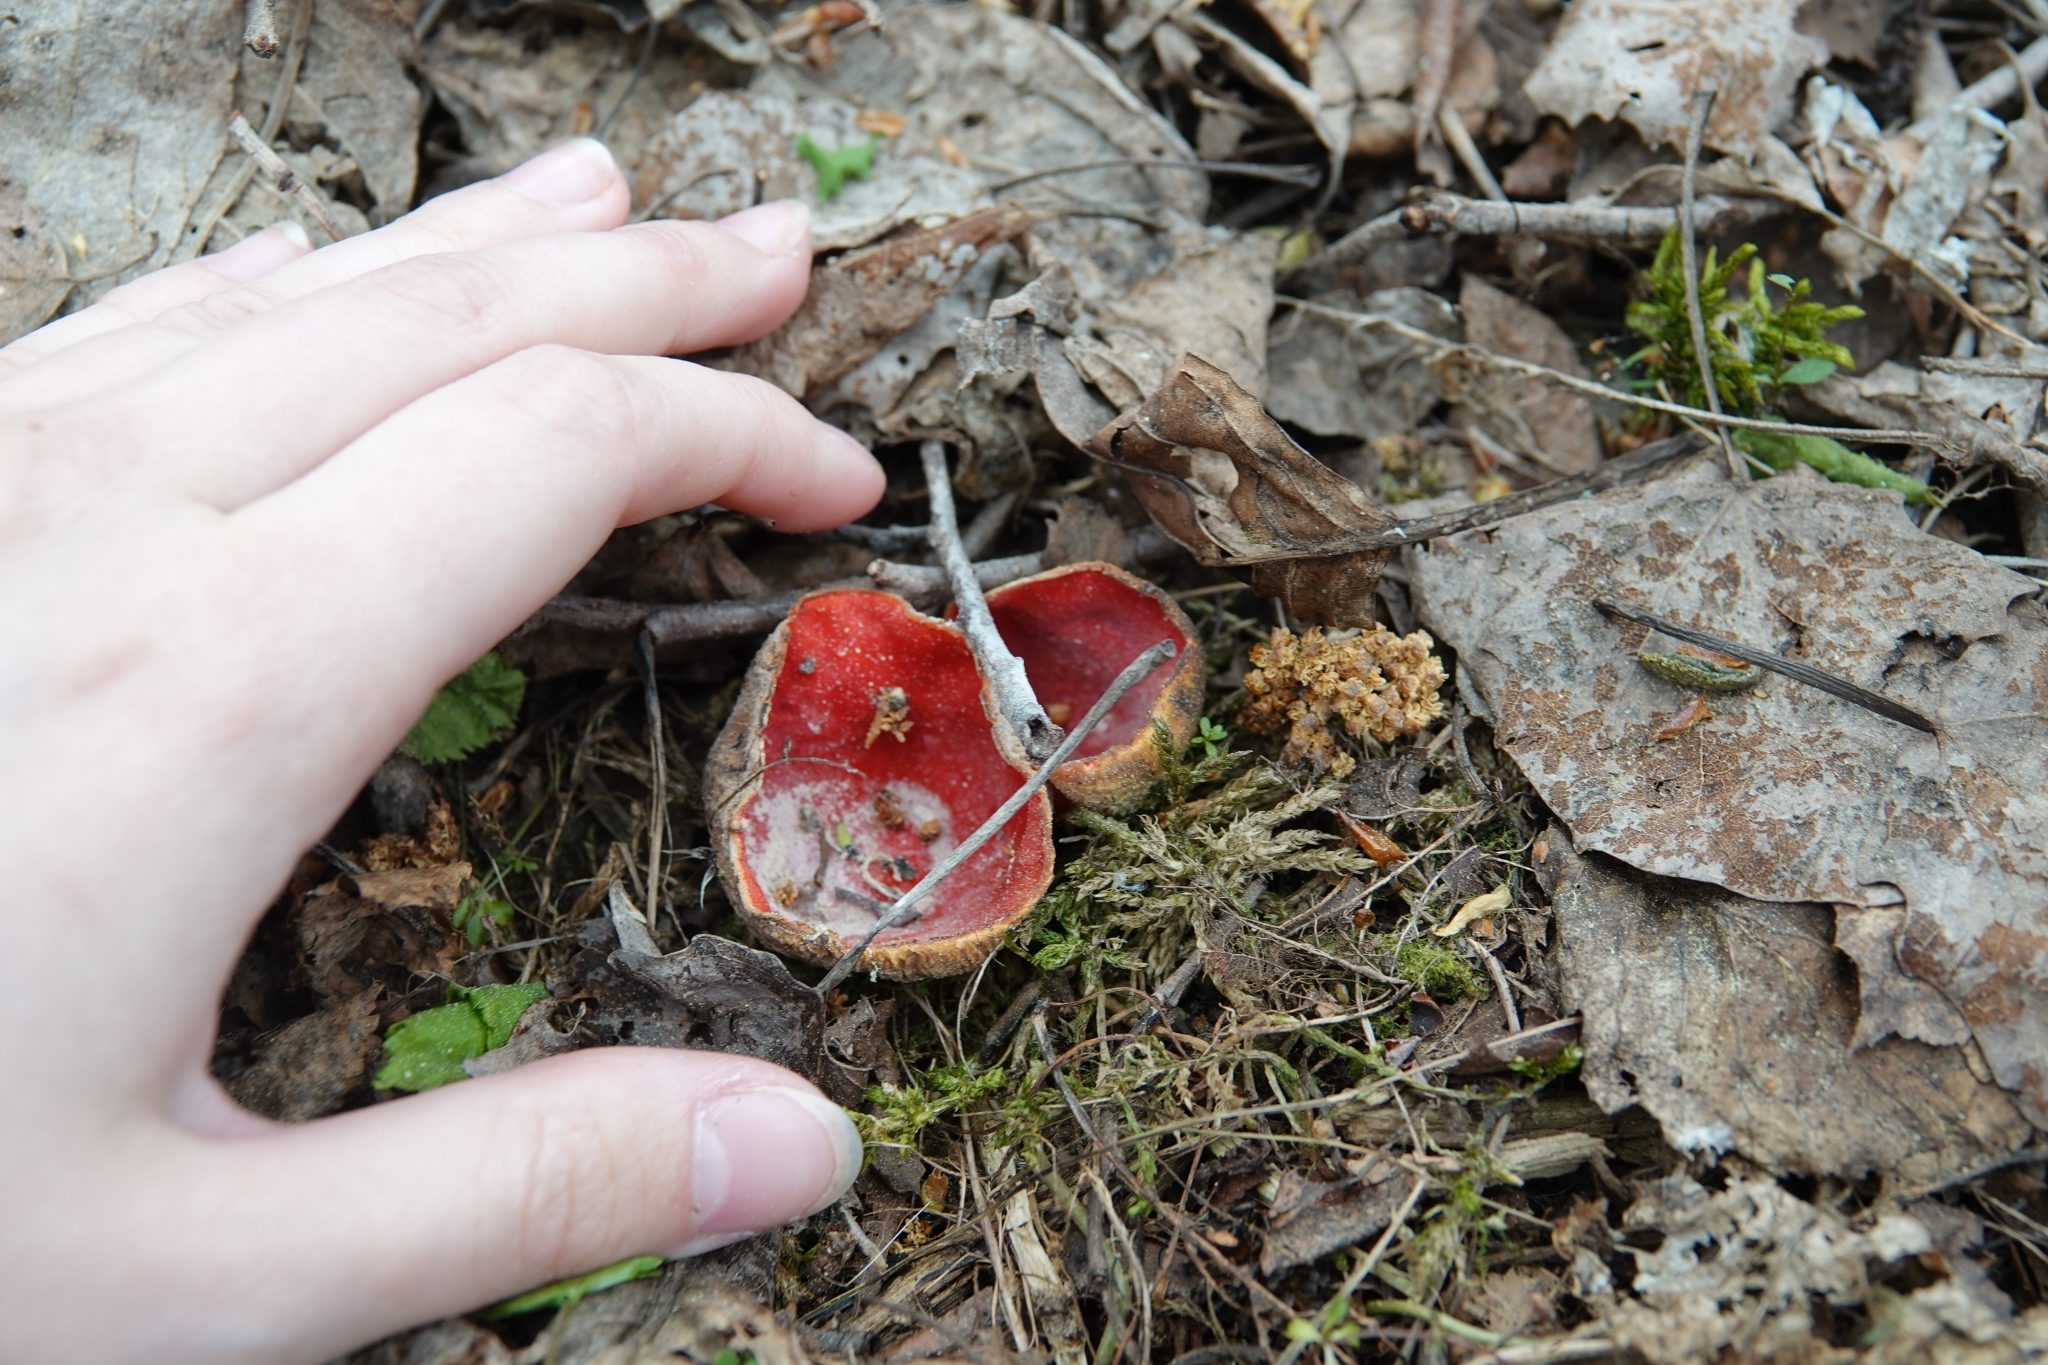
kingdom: Fungi
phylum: Ascomycota
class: Pezizomycetes
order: Pezizales
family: Sarcoscyphaceae
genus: Sarcoscypha
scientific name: Sarcoscypha austriaca
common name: Scarlet elfcup
